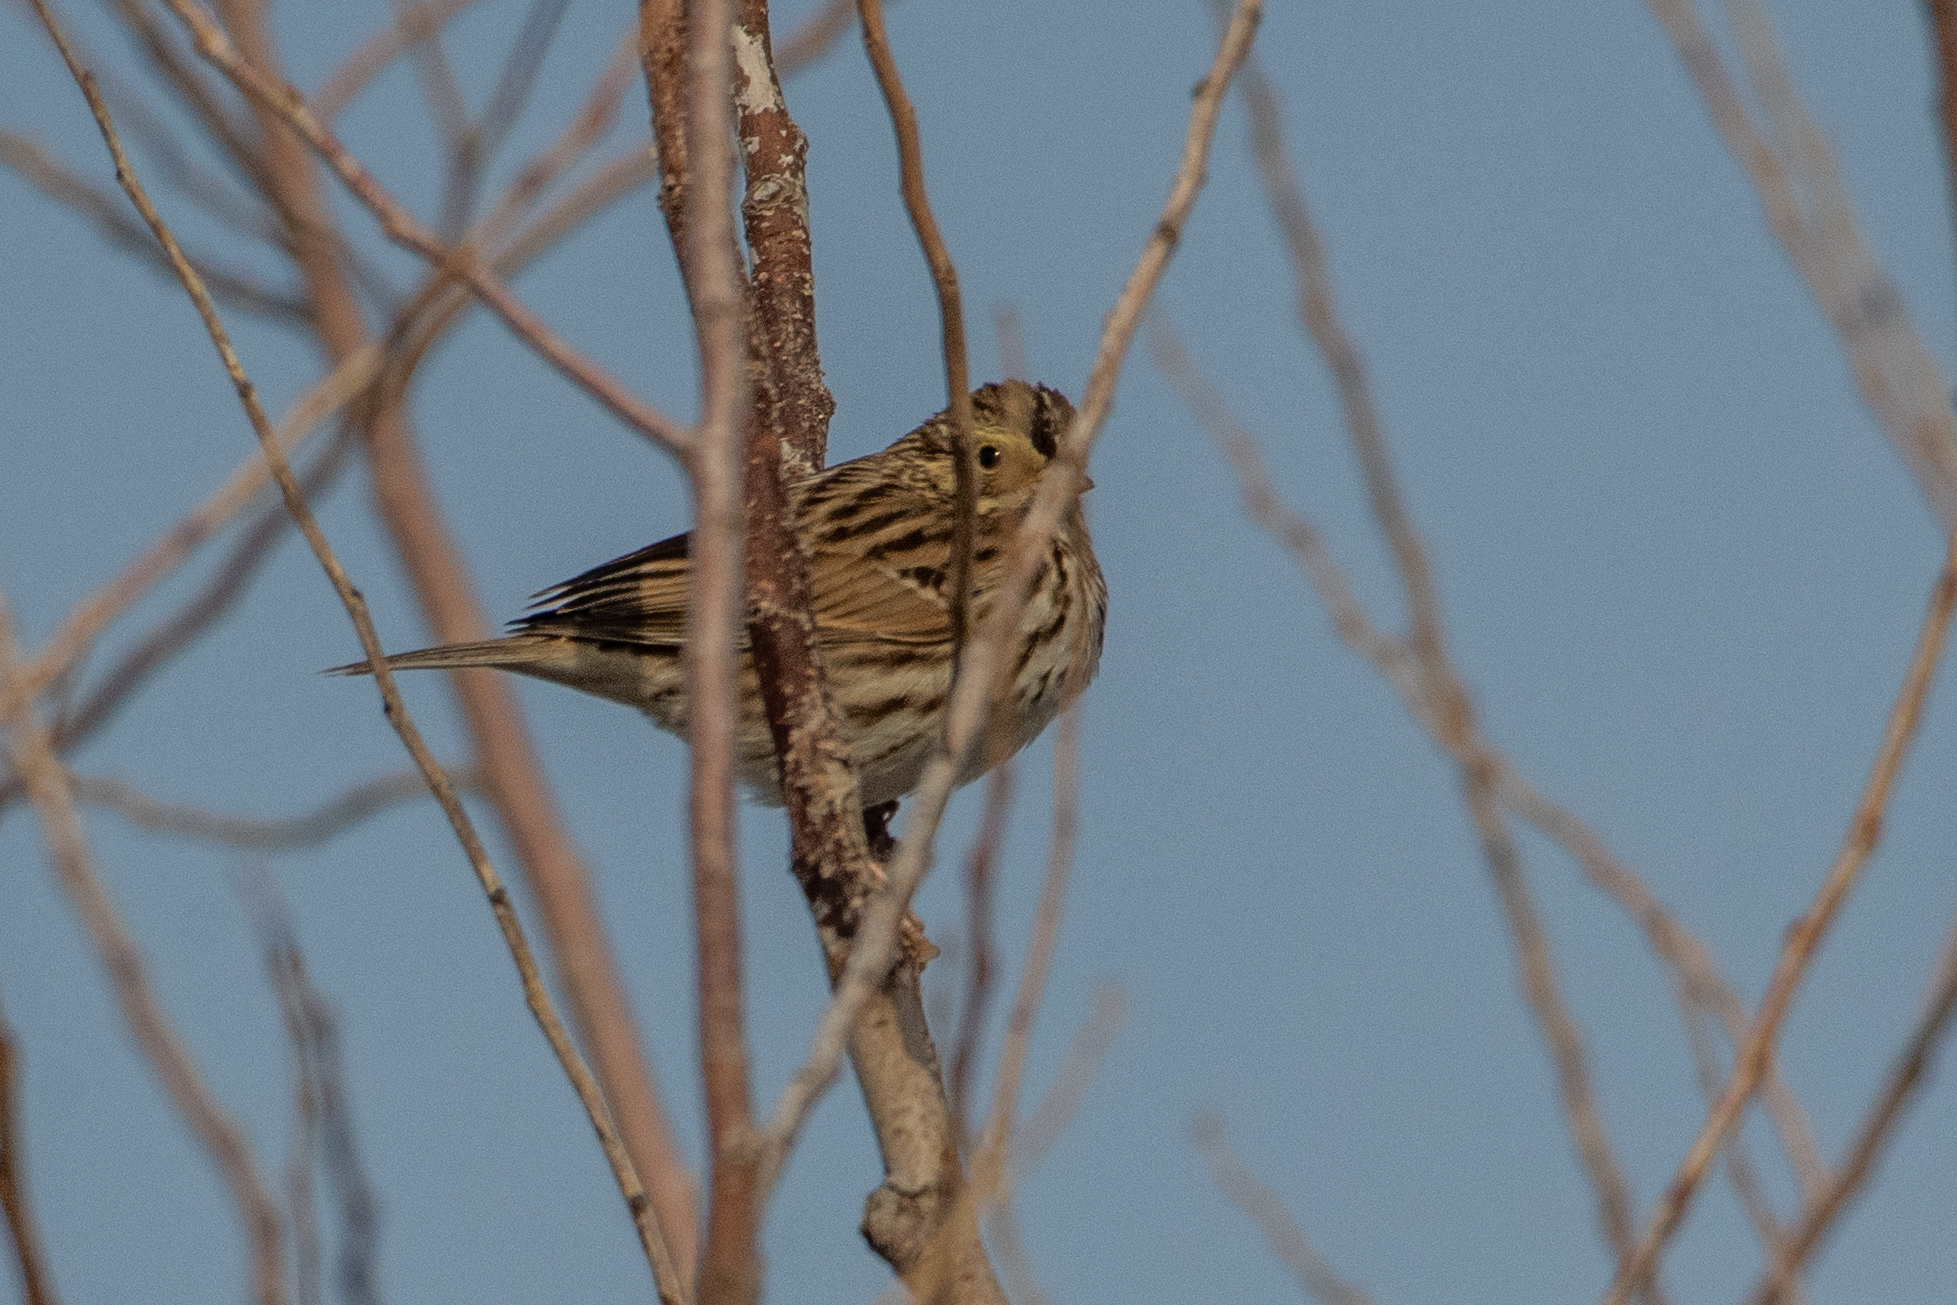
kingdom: Animalia
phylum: Chordata
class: Aves
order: Passeriformes
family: Passerellidae
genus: Passerculus
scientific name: Passerculus sandwichensis
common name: Savannah sparrow
